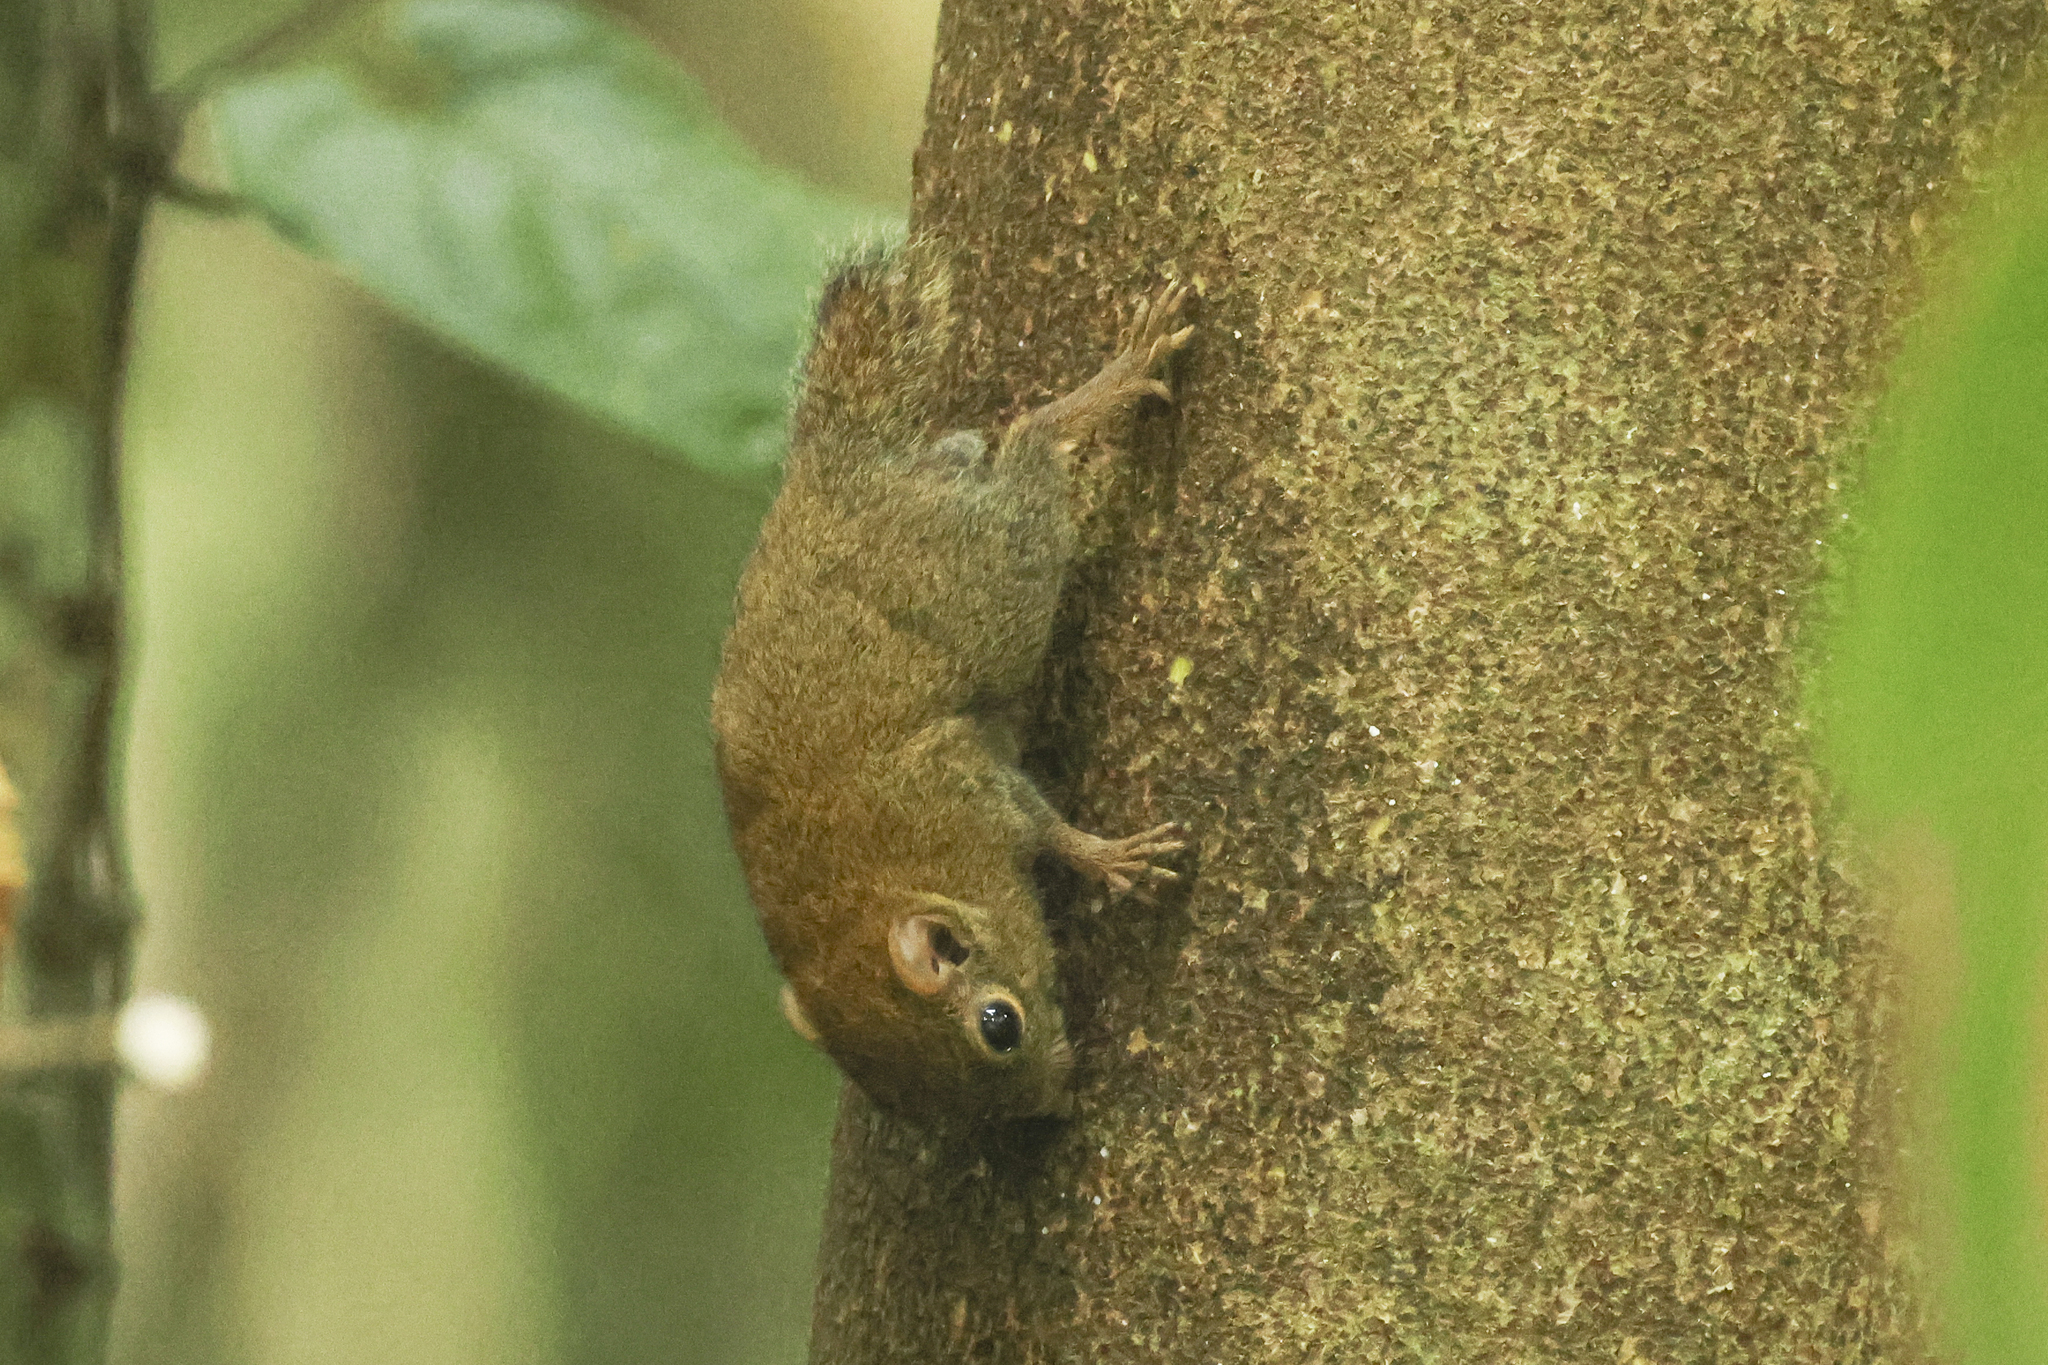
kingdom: Animalia
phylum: Chordata
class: Mammalia
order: Rodentia
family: Sciuridae
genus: Exilisciurus
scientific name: Exilisciurus exilis
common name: Least pygmy squirrel
